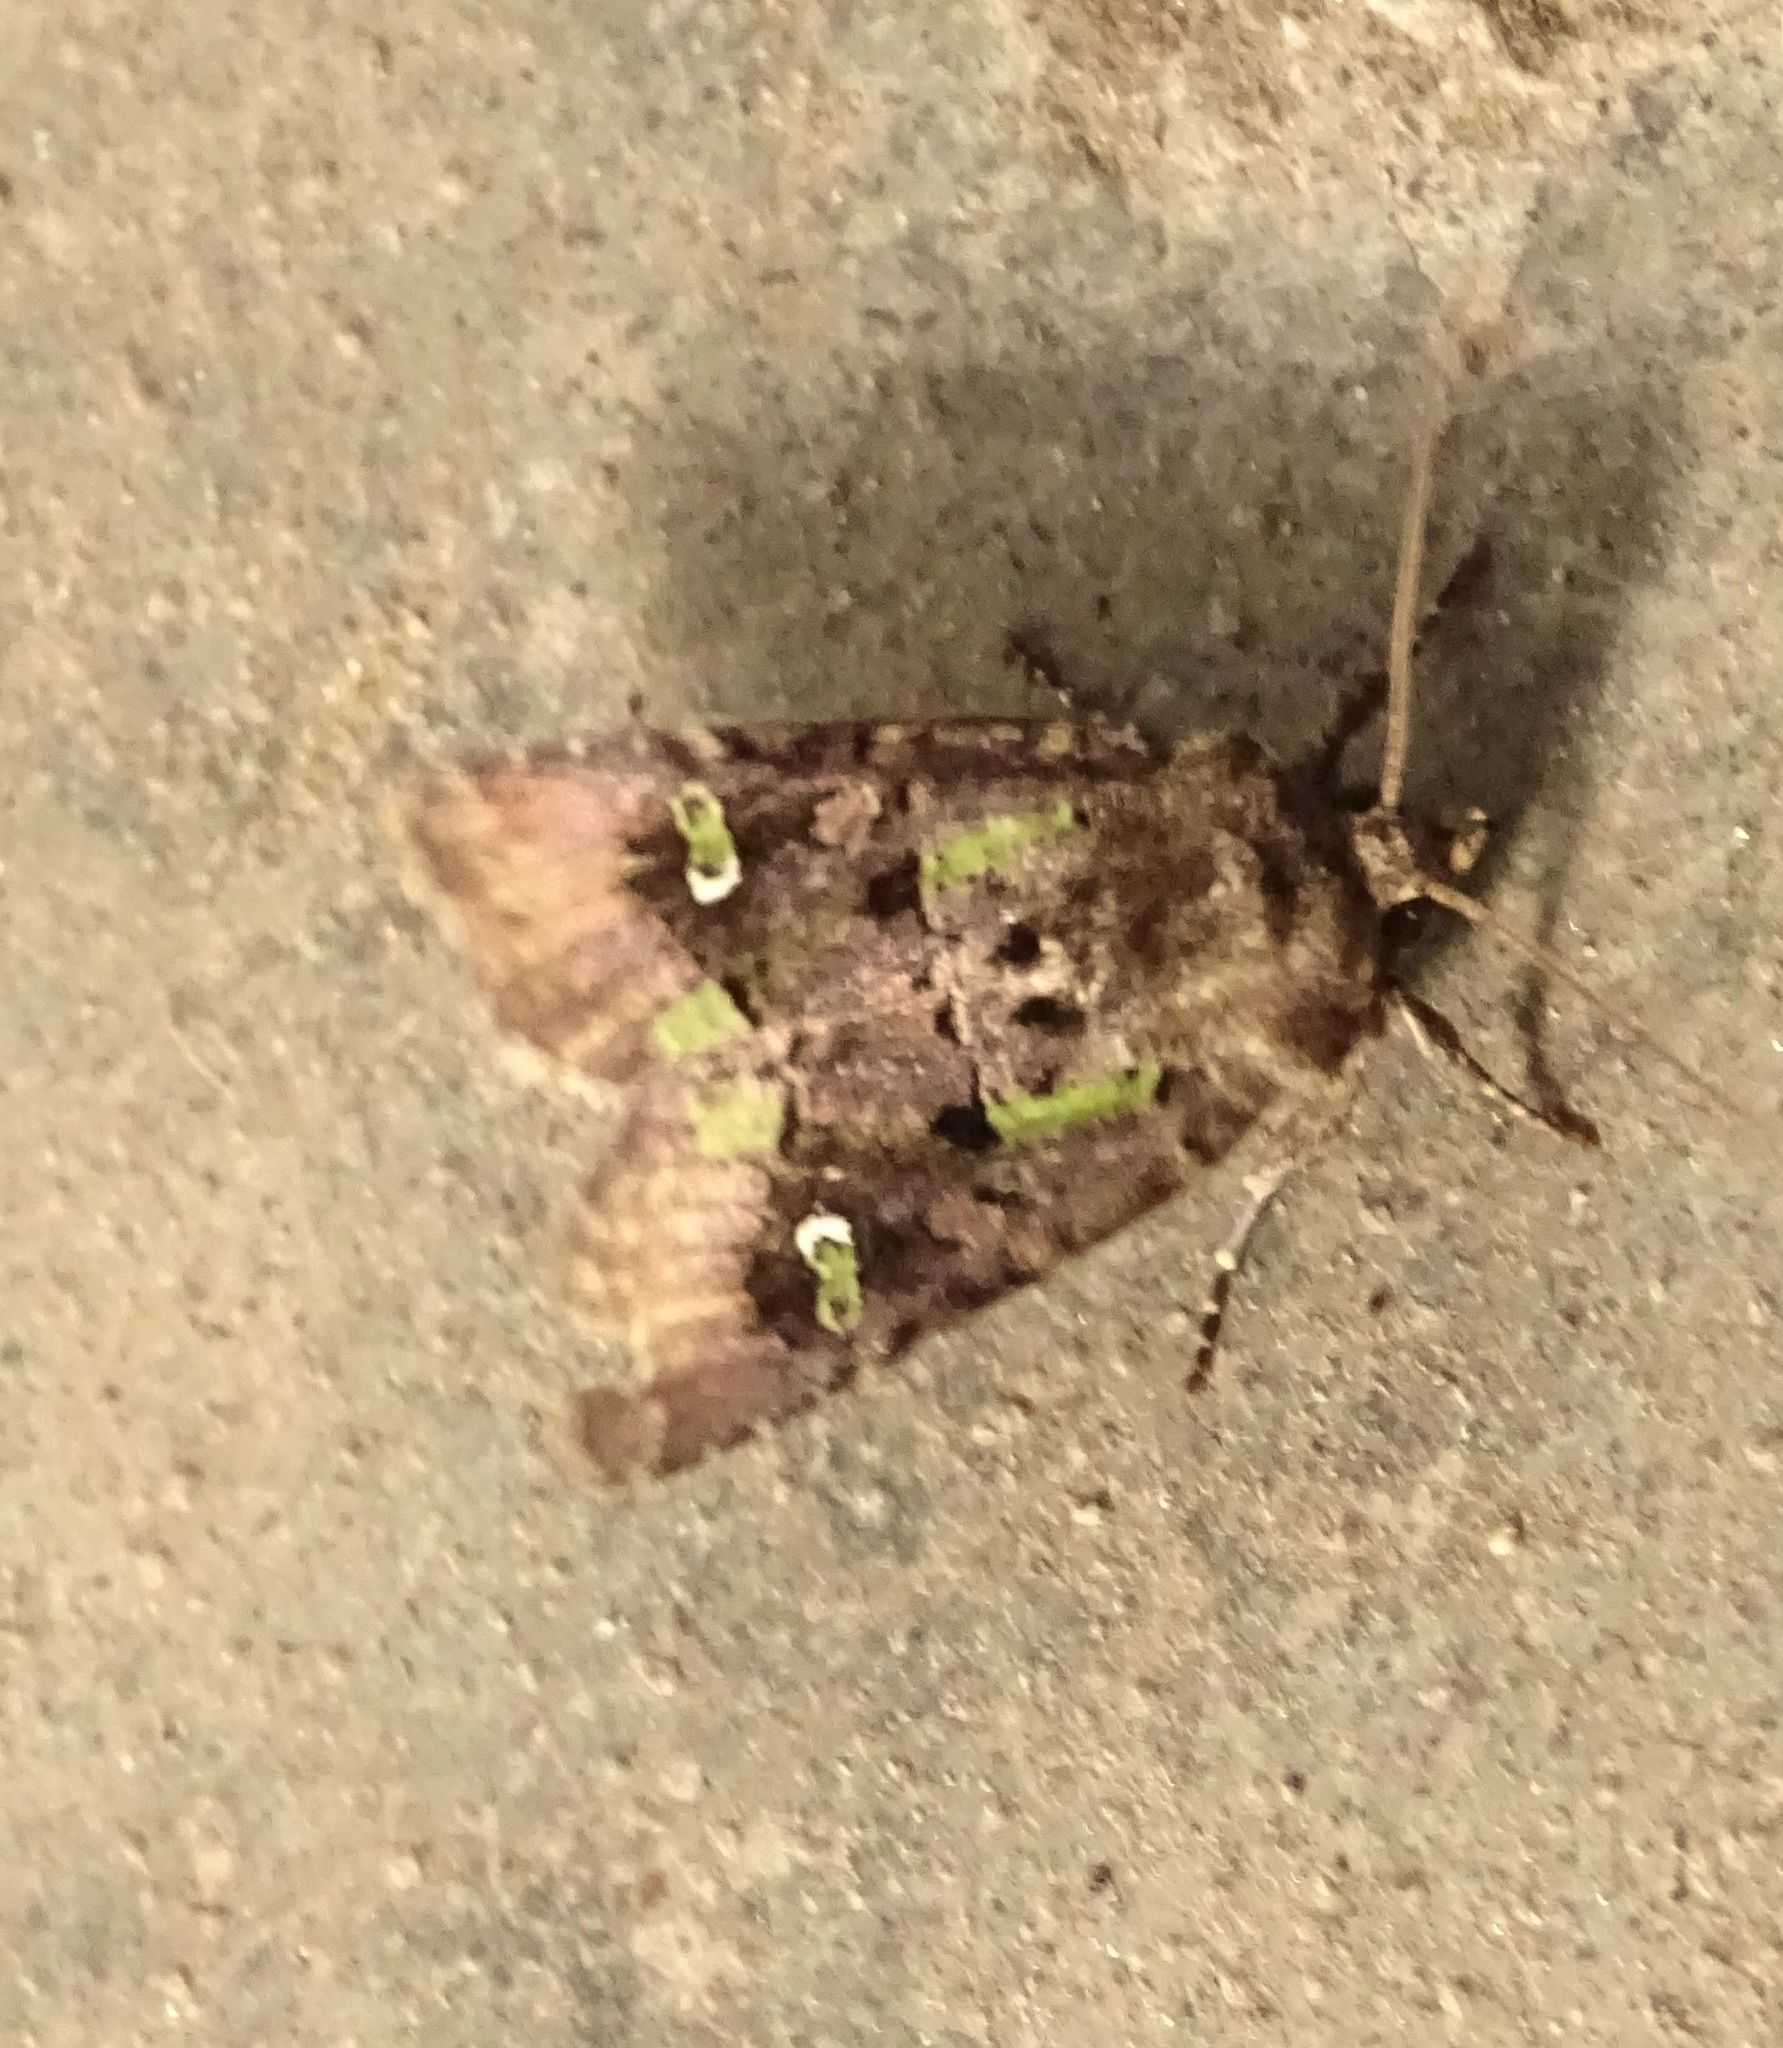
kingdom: Animalia
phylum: Arthropoda
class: Insecta
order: Lepidoptera
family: Noctuidae
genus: Lacinipolia
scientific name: Lacinipolia renigera
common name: Kidney-spotted minor
